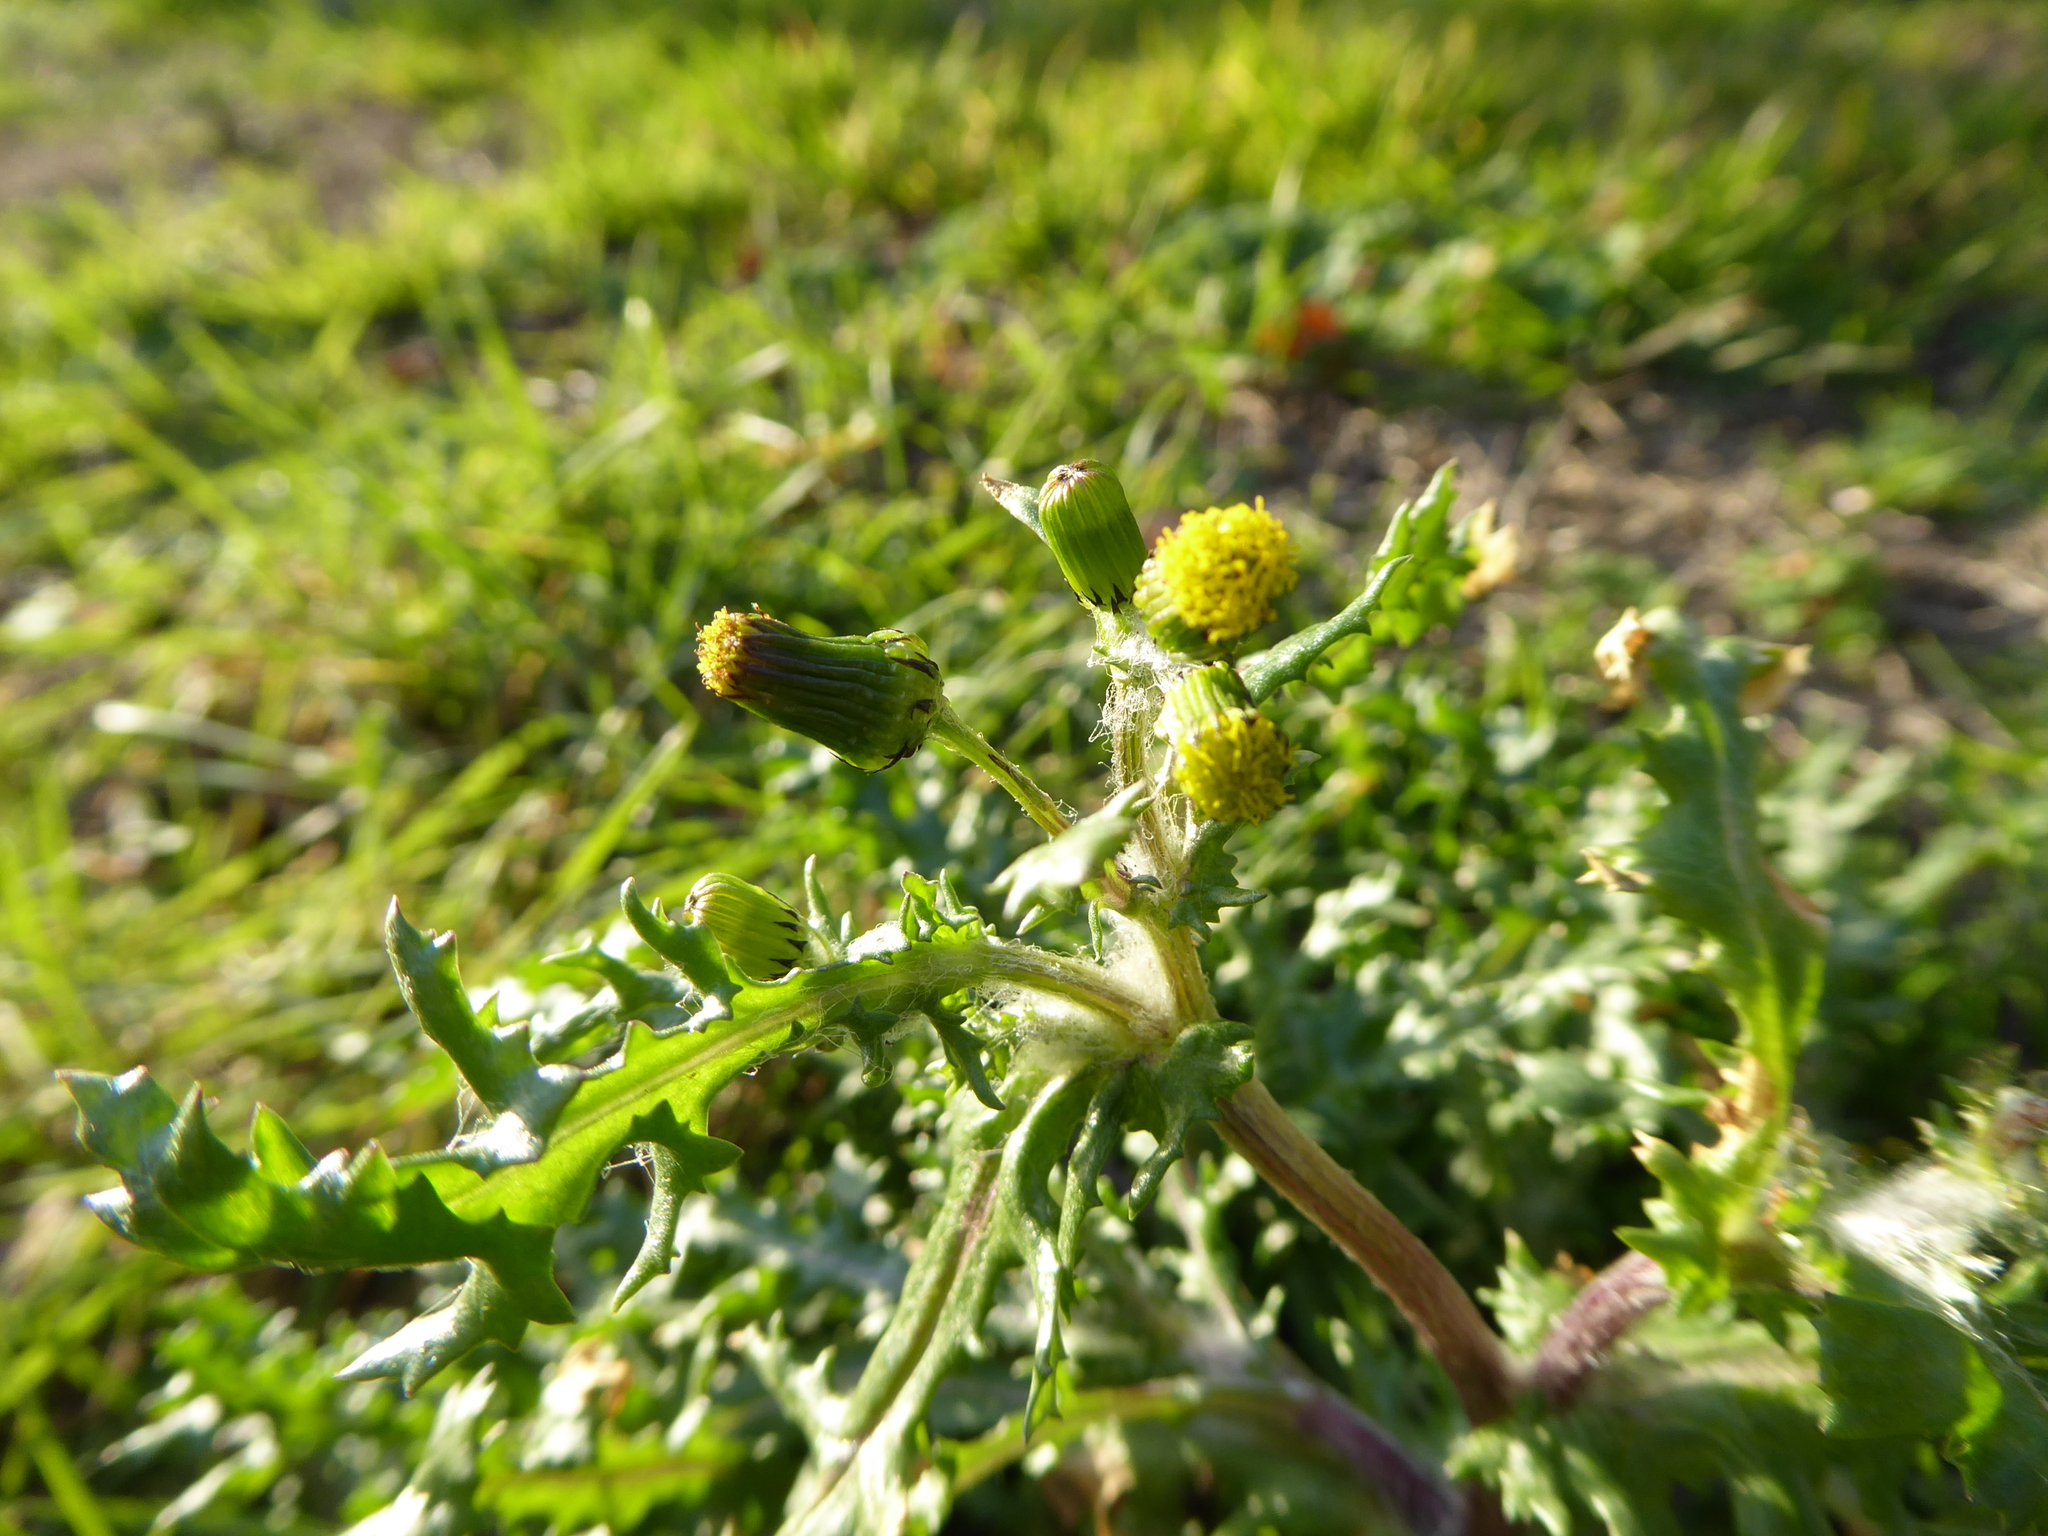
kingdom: Plantae
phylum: Tracheophyta
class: Magnoliopsida
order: Asterales
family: Asteraceae
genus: Senecio
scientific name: Senecio vulgaris
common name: Old-man-in-the-spring
